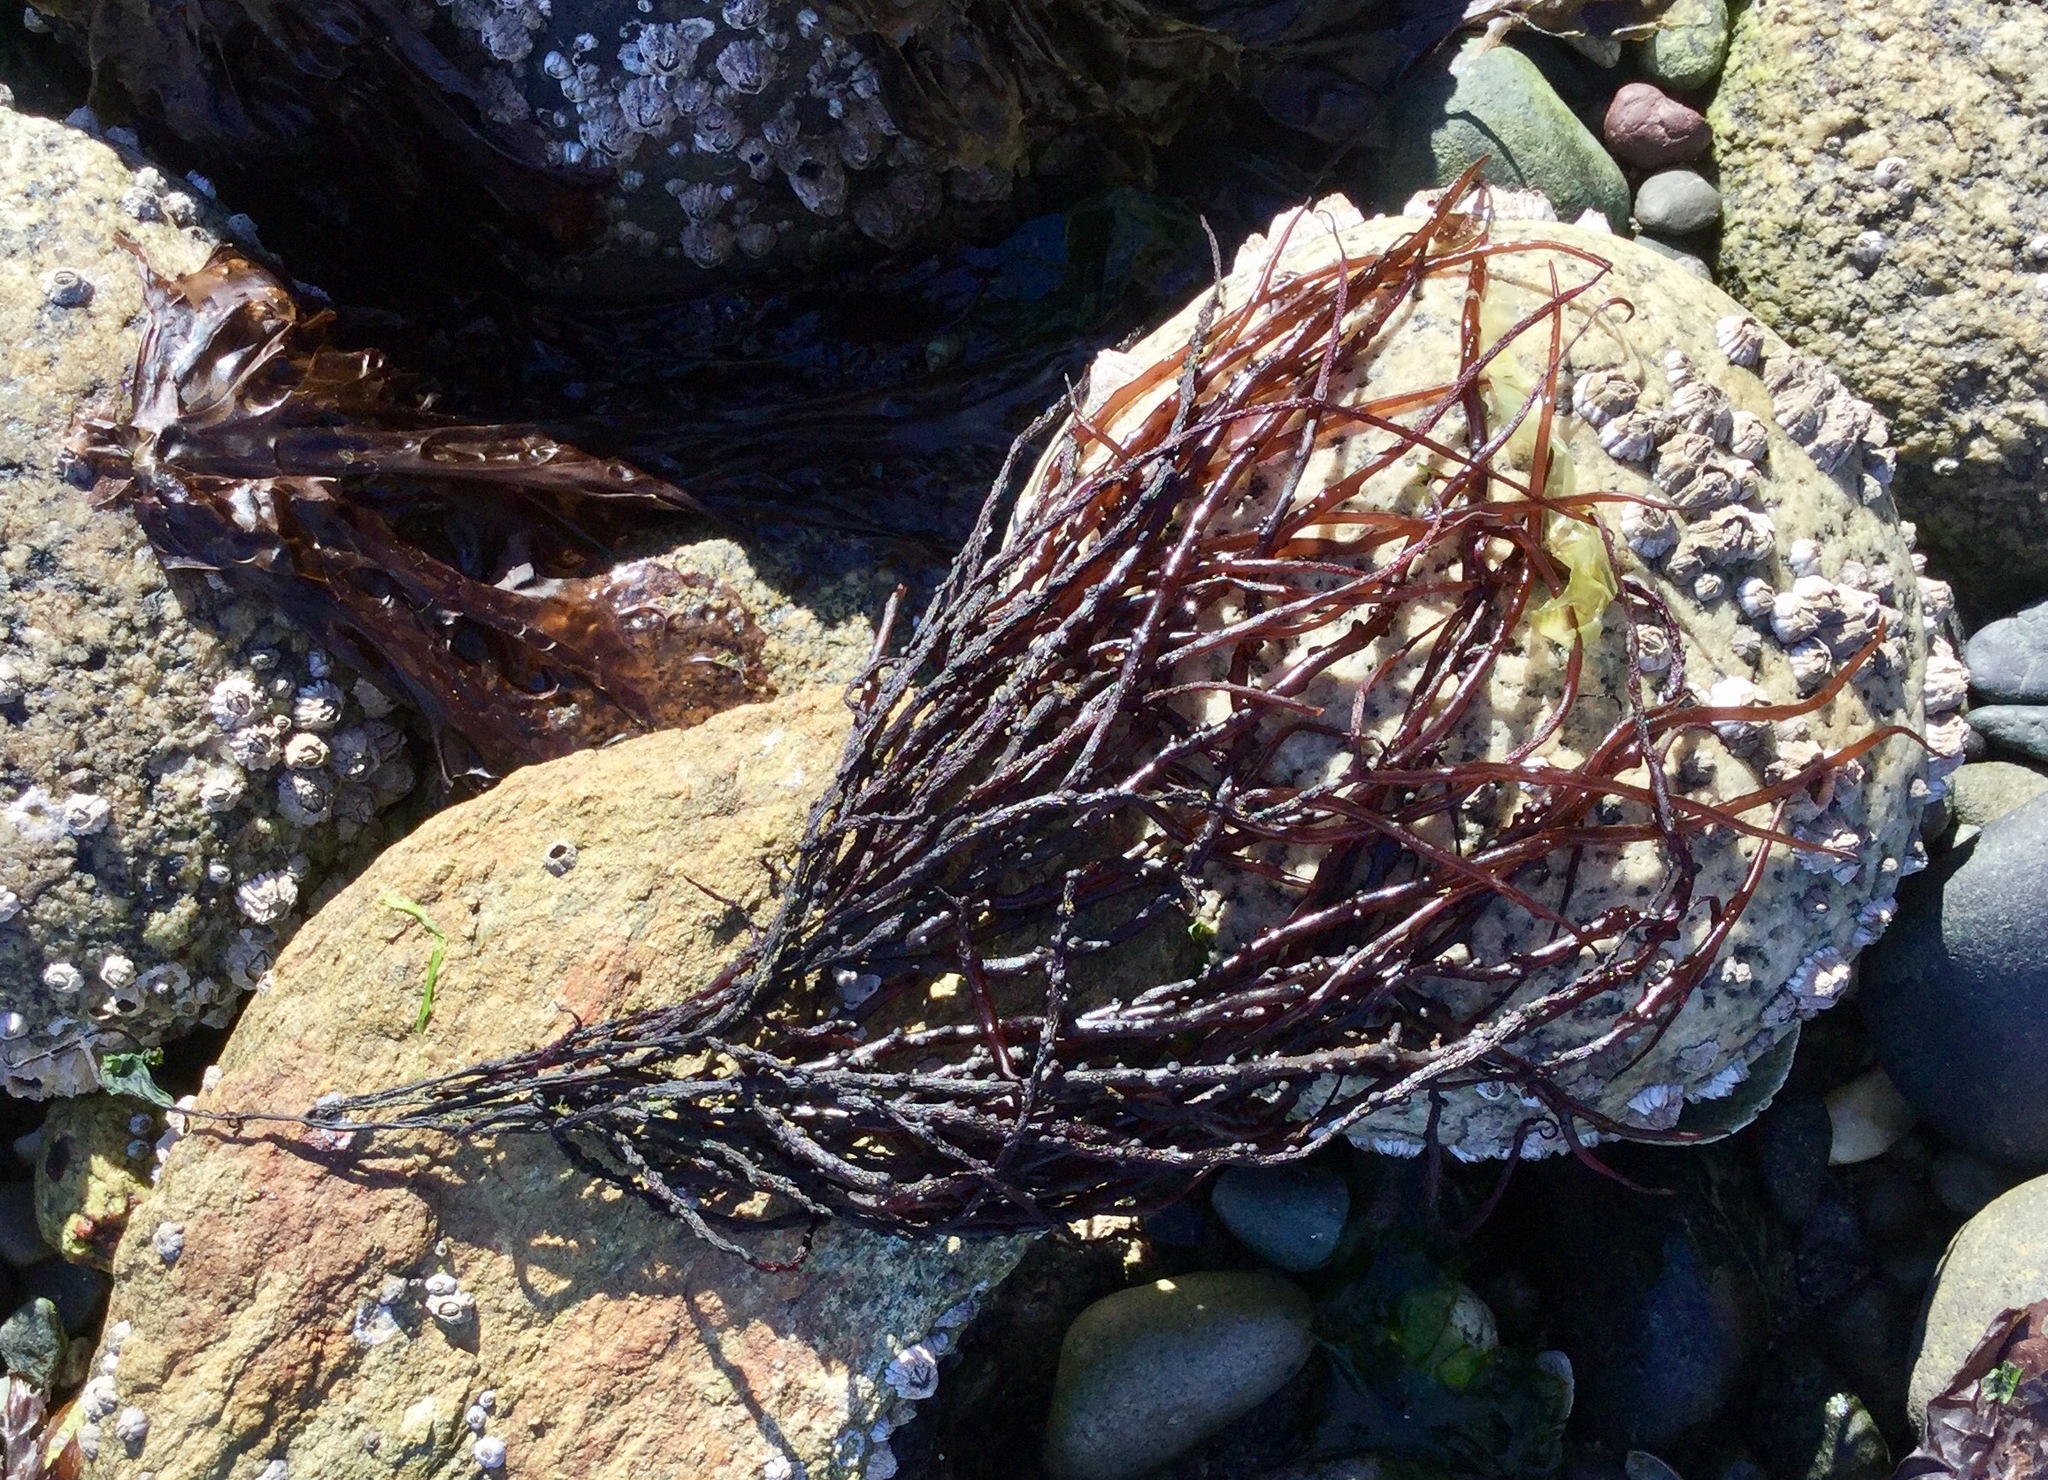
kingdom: Plantae
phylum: Rhodophyta
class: Florideophyceae
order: Gigartinales
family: Solieriaceae
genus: Sarcodiotheca
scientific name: Sarcodiotheca gaudichaudii
